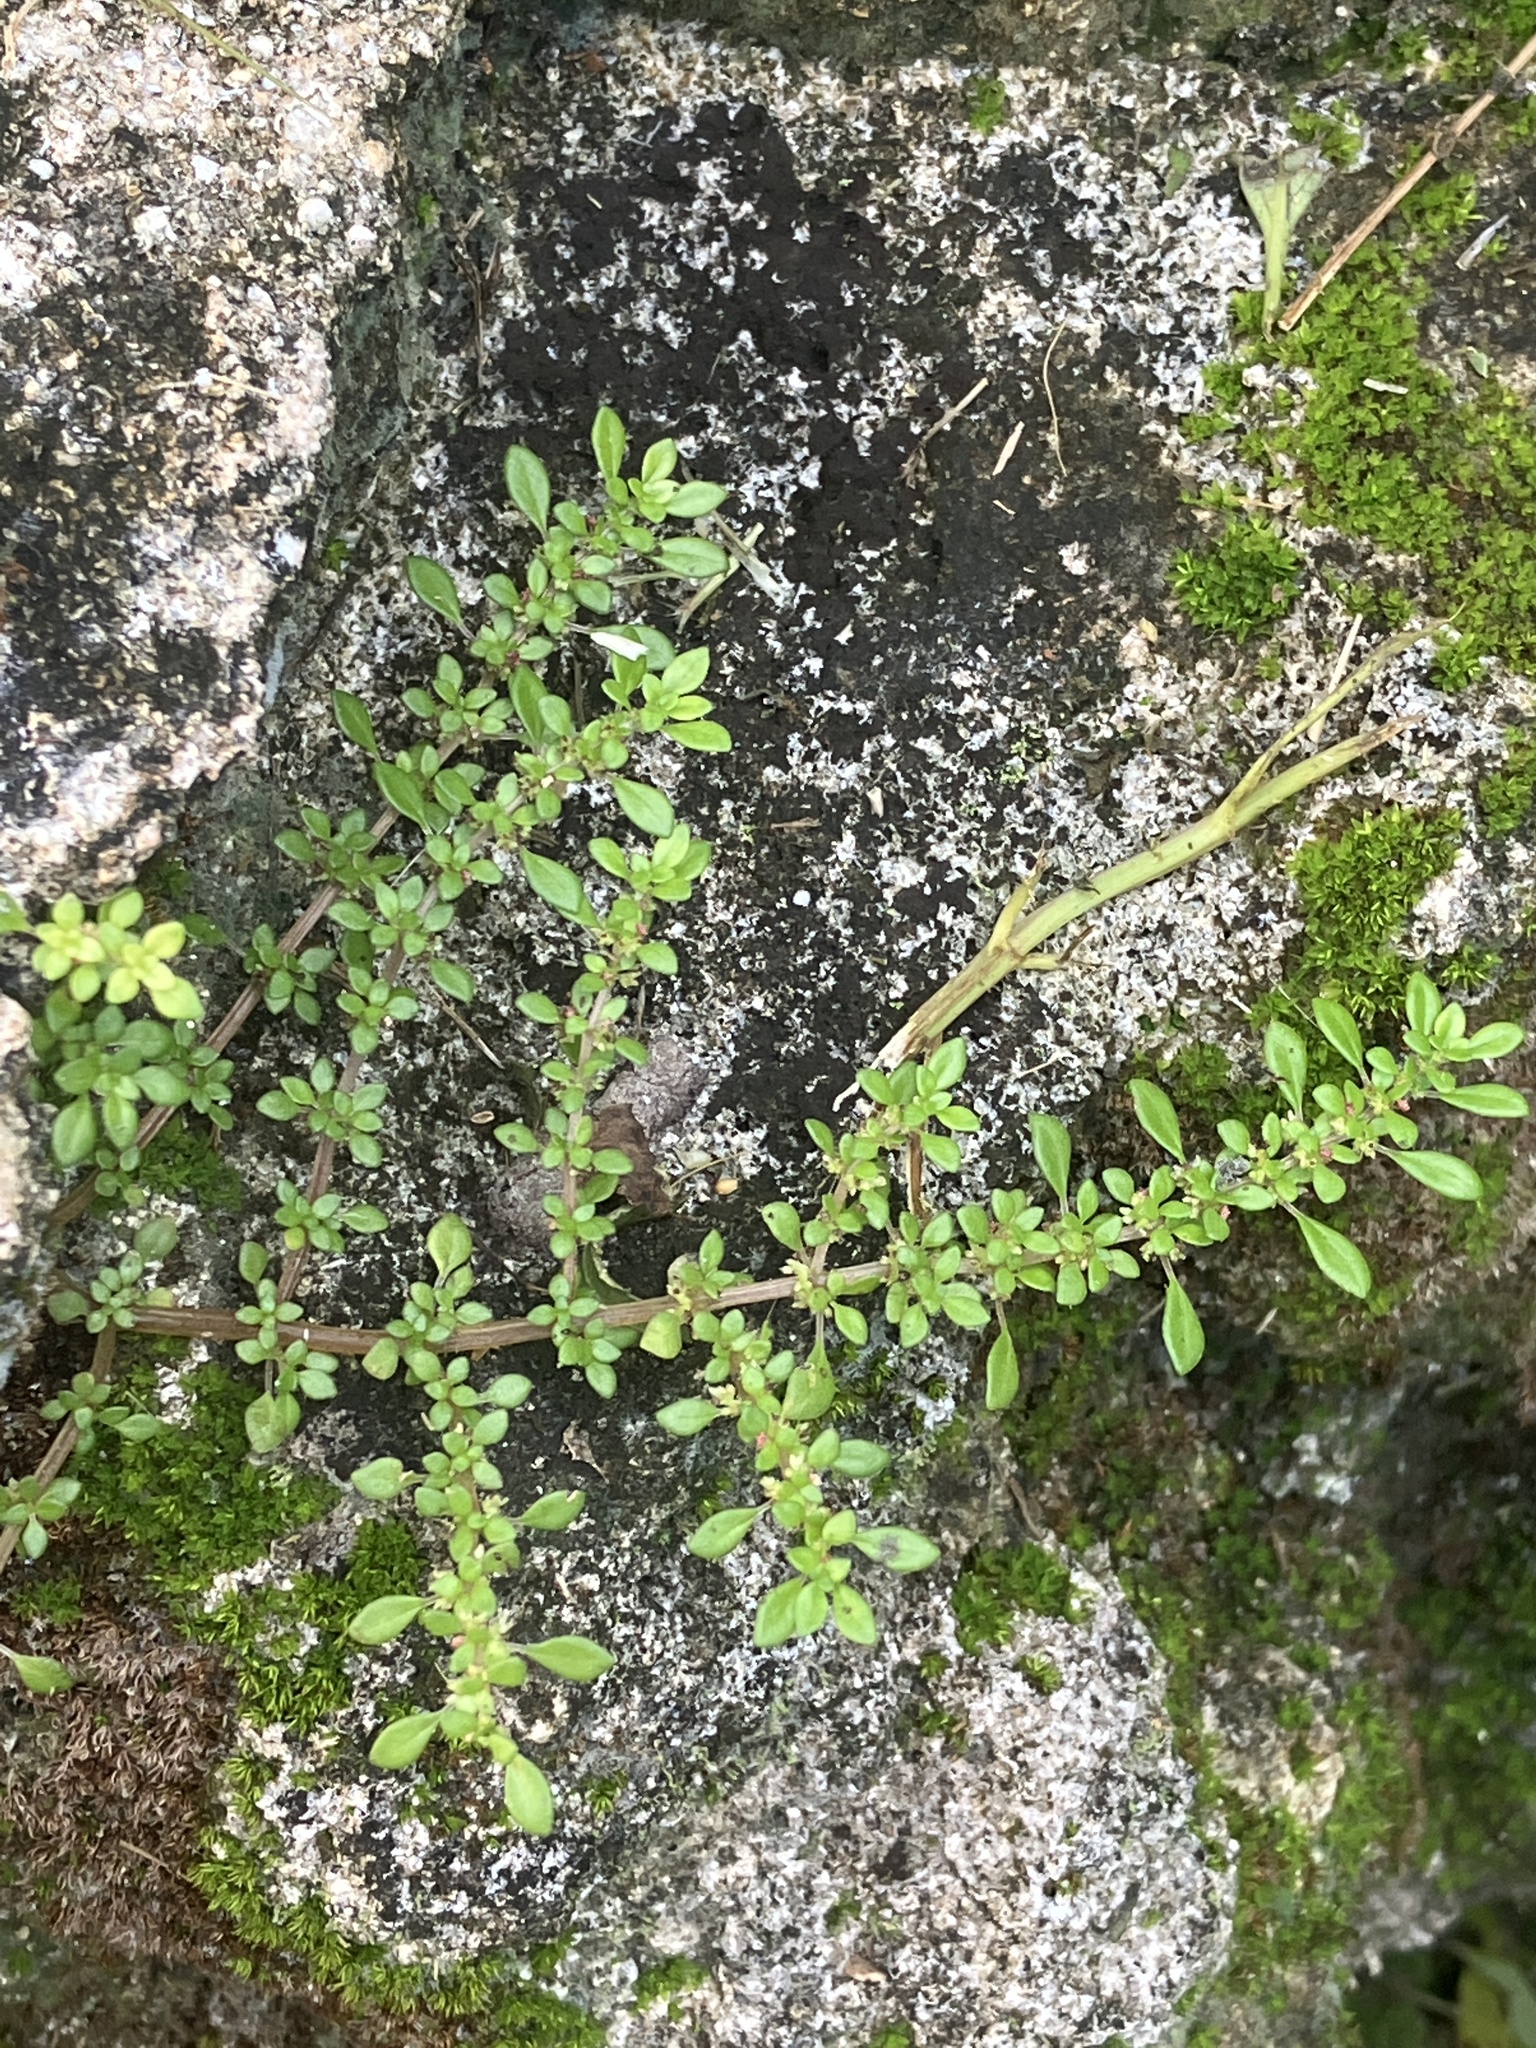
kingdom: Plantae
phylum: Tracheophyta
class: Magnoliopsida
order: Rosales
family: Urticaceae
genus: Pilea
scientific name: Pilea microphylla
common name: Artillery-plant
